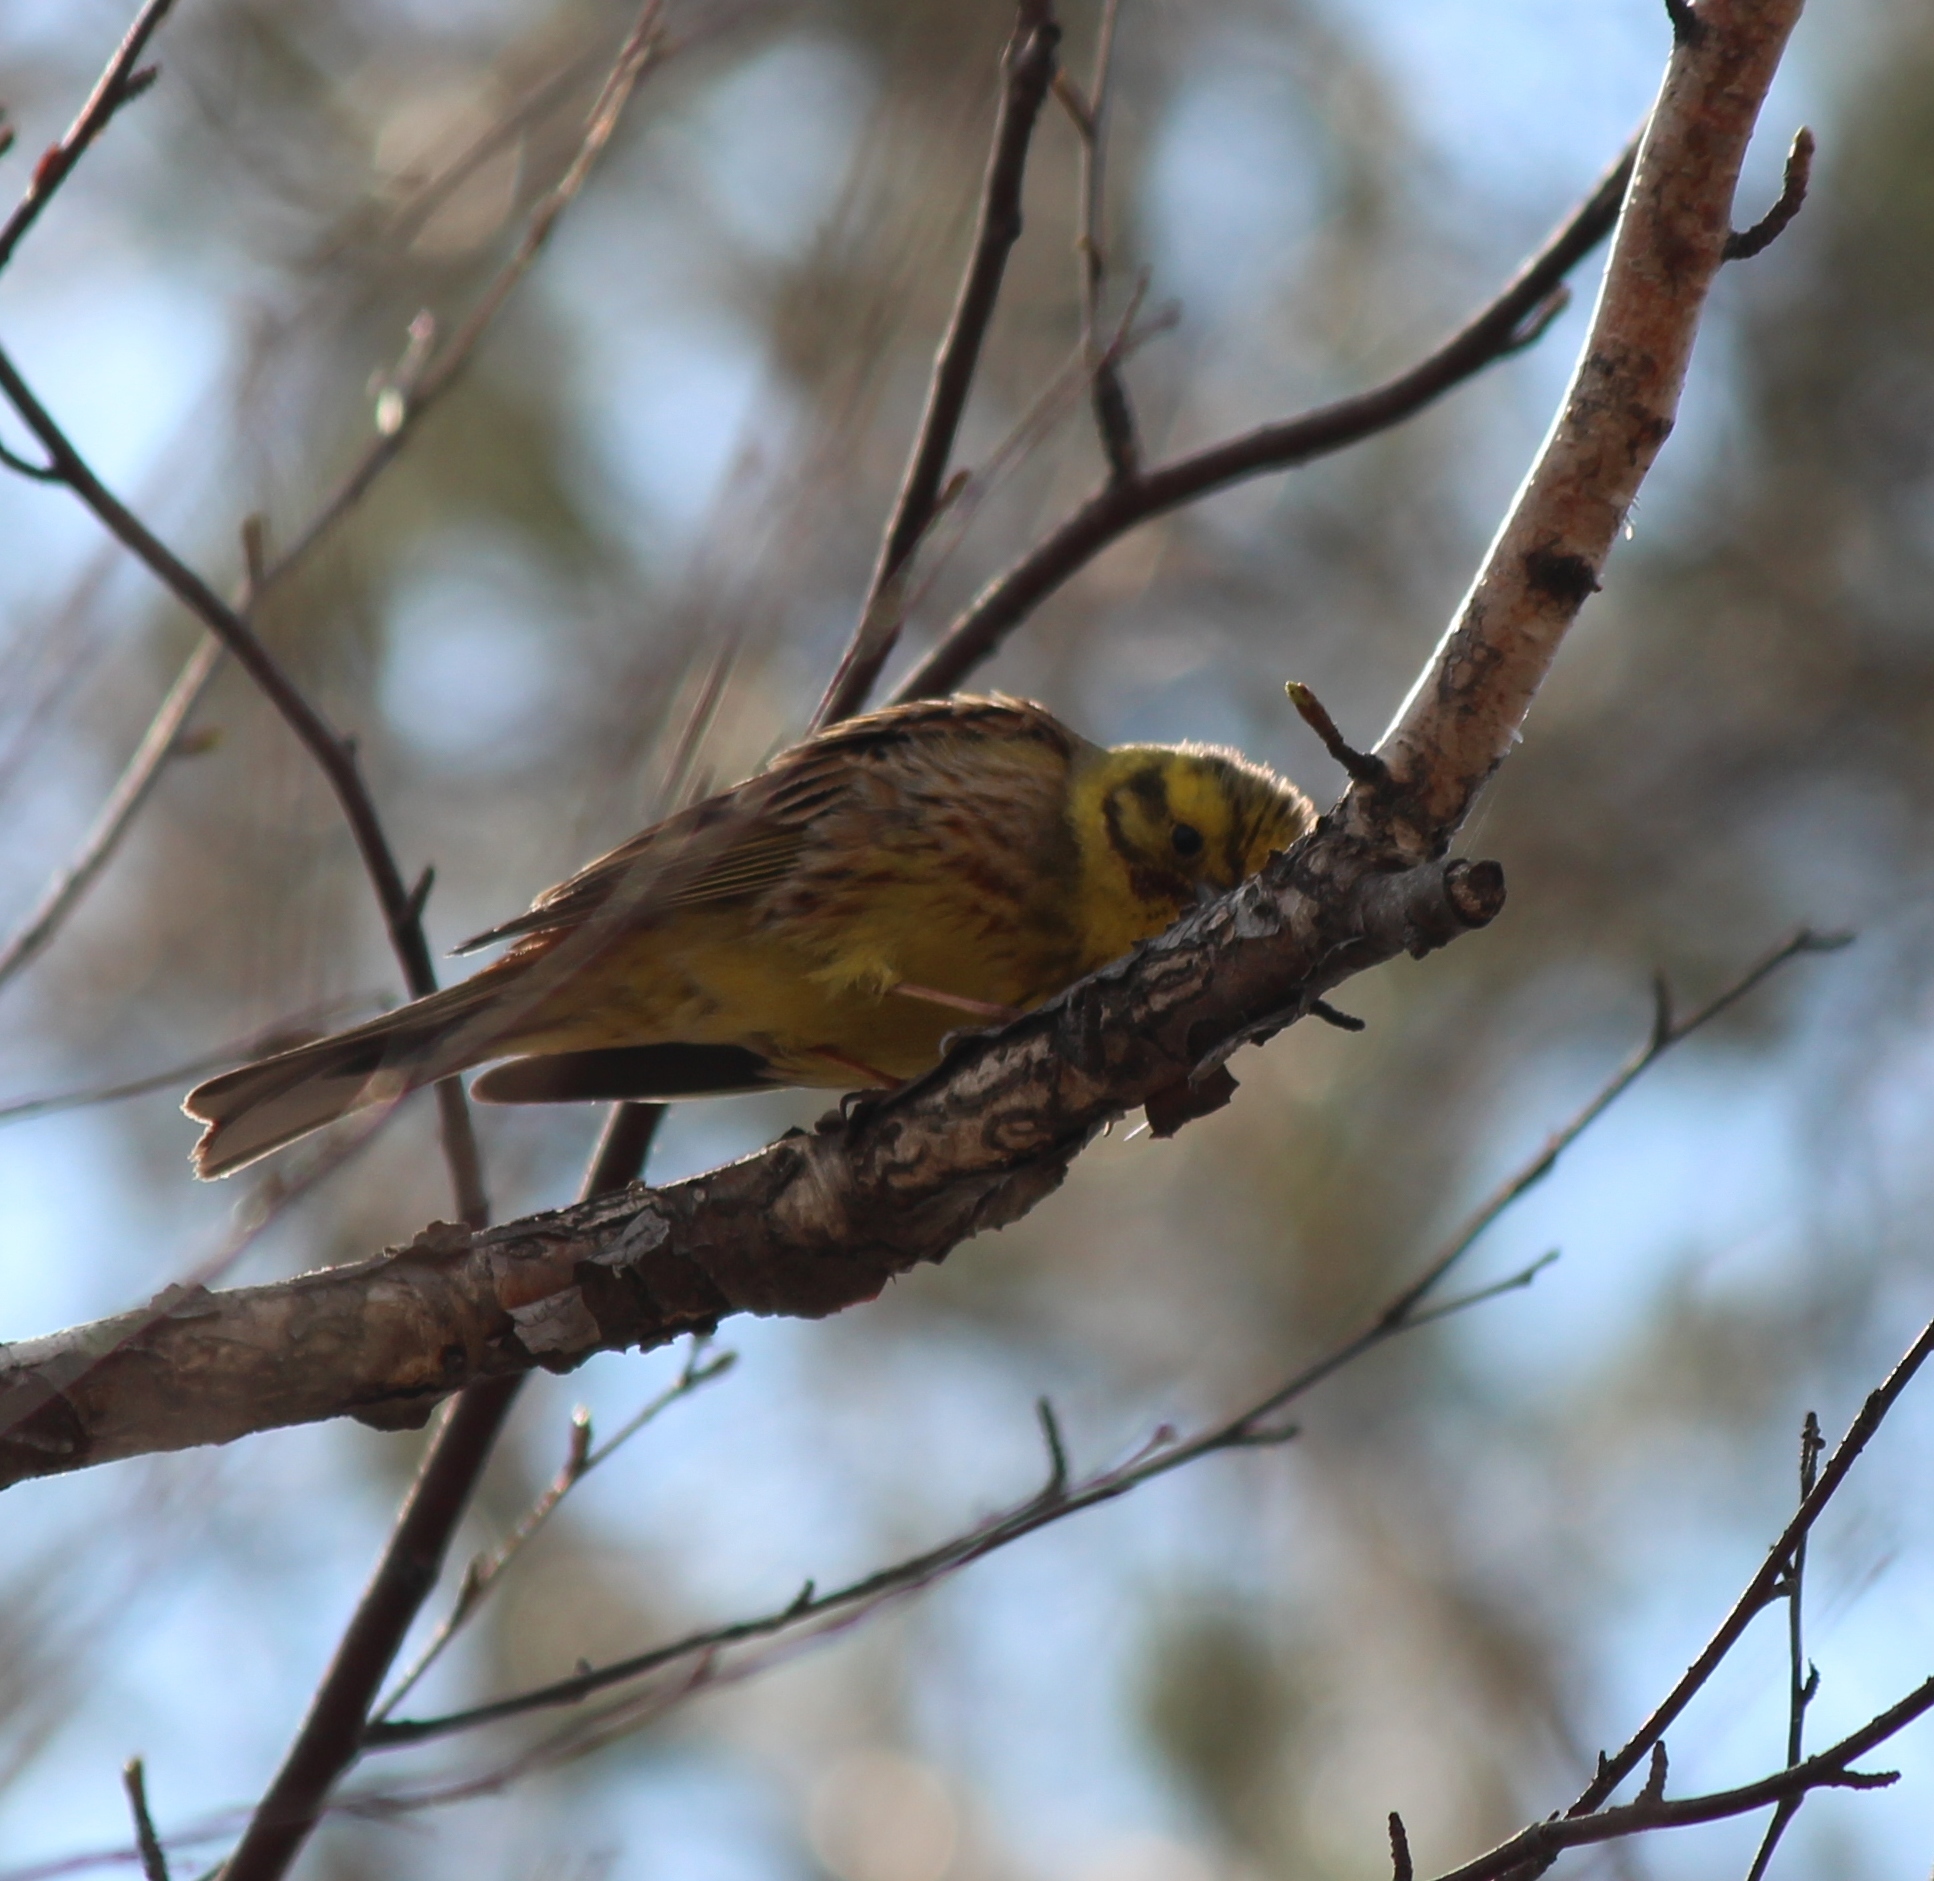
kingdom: Animalia
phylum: Chordata
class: Aves
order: Passeriformes
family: Emberizidae
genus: Emberiza
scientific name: Emberiza citrinella
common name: Yellowhammer
